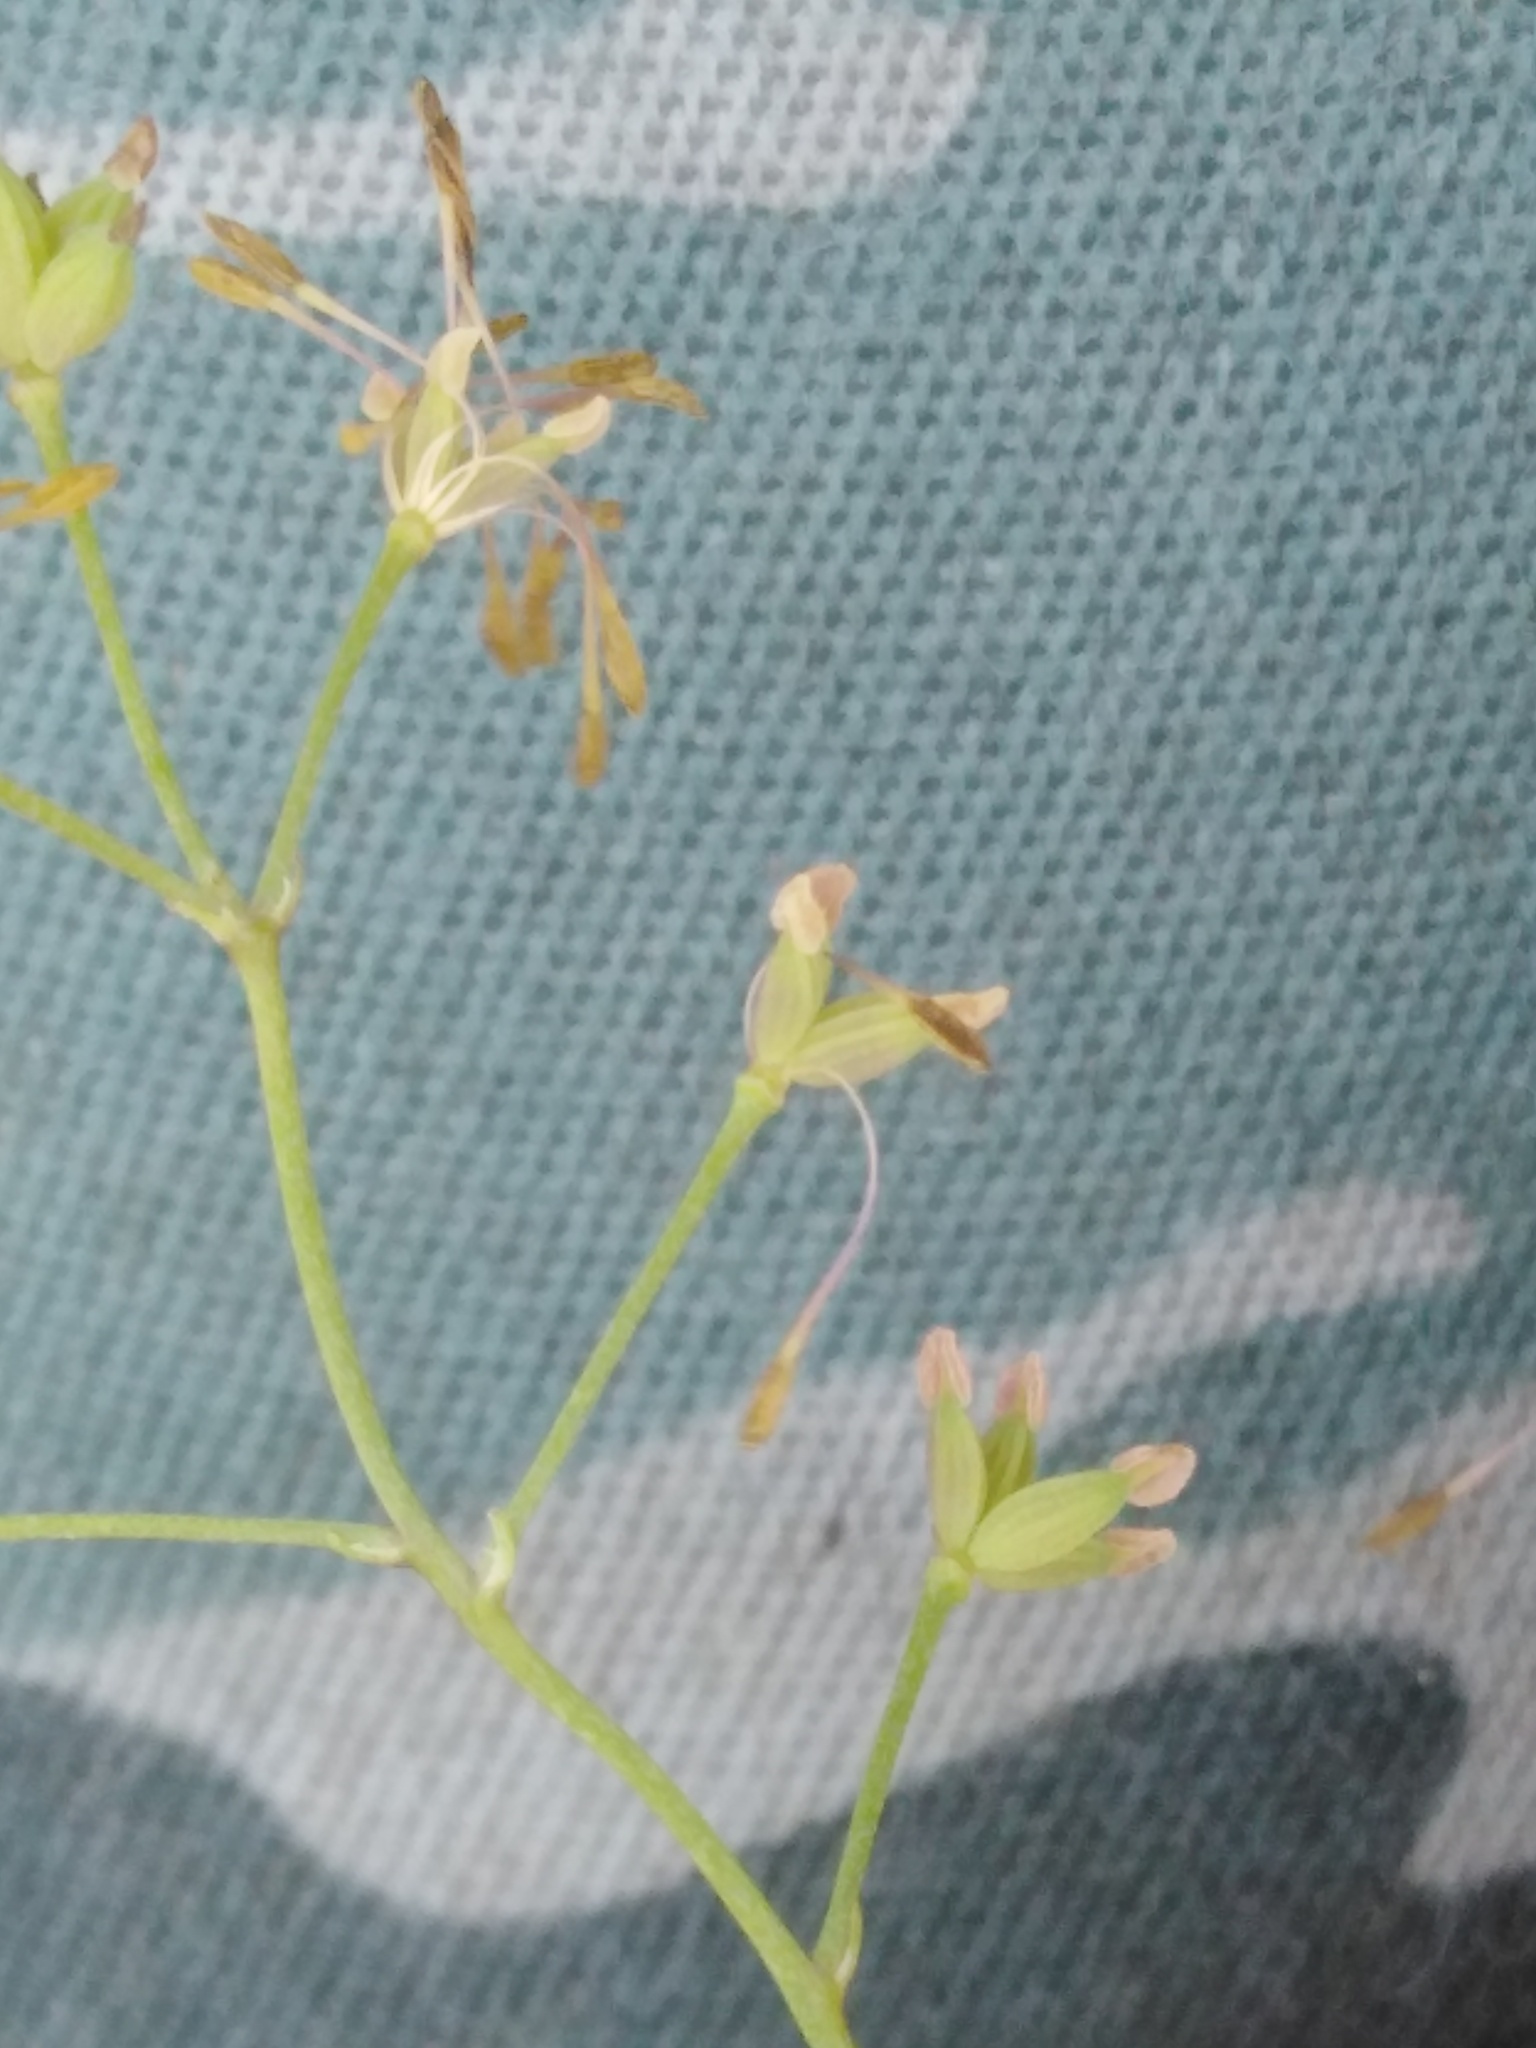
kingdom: Plantae
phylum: Tracheophyta
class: Magnoliopsida
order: Ranunculales
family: Ranunculaceae
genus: Thalictrum
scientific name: Thalictrum minus
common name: Lesser meadow-rue
